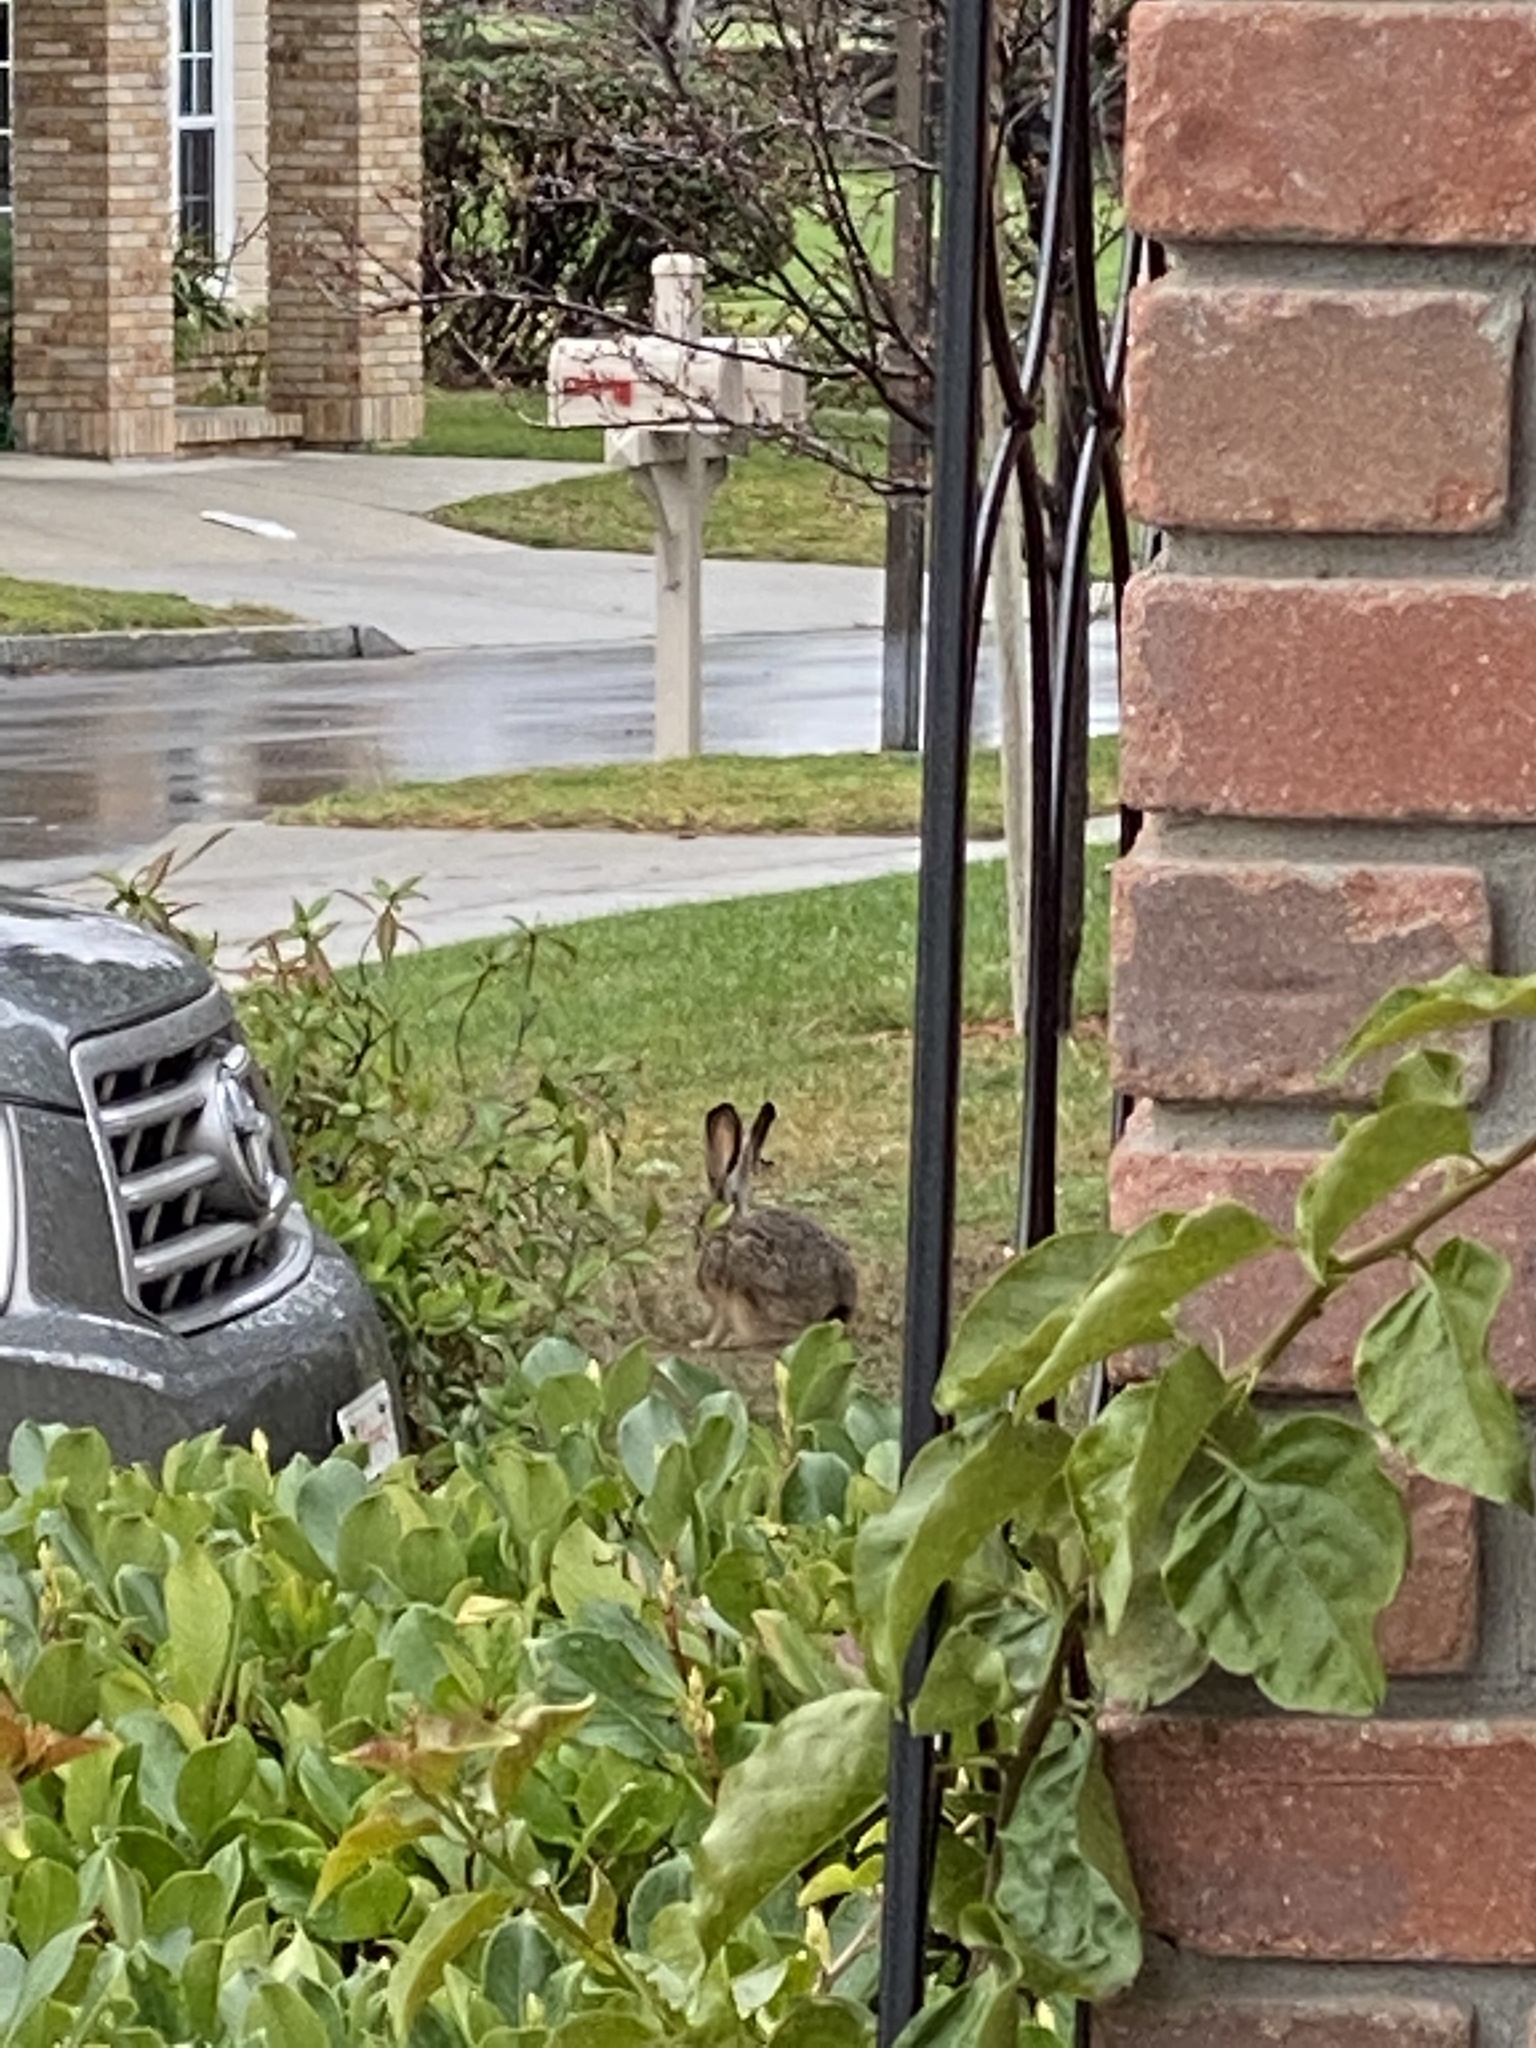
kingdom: Animalia
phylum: Chordata
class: Mammalia
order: Lagomorpha
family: Leporidae
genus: Lepus
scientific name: Lepus californicus
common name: Black-tailed jackrabbit
